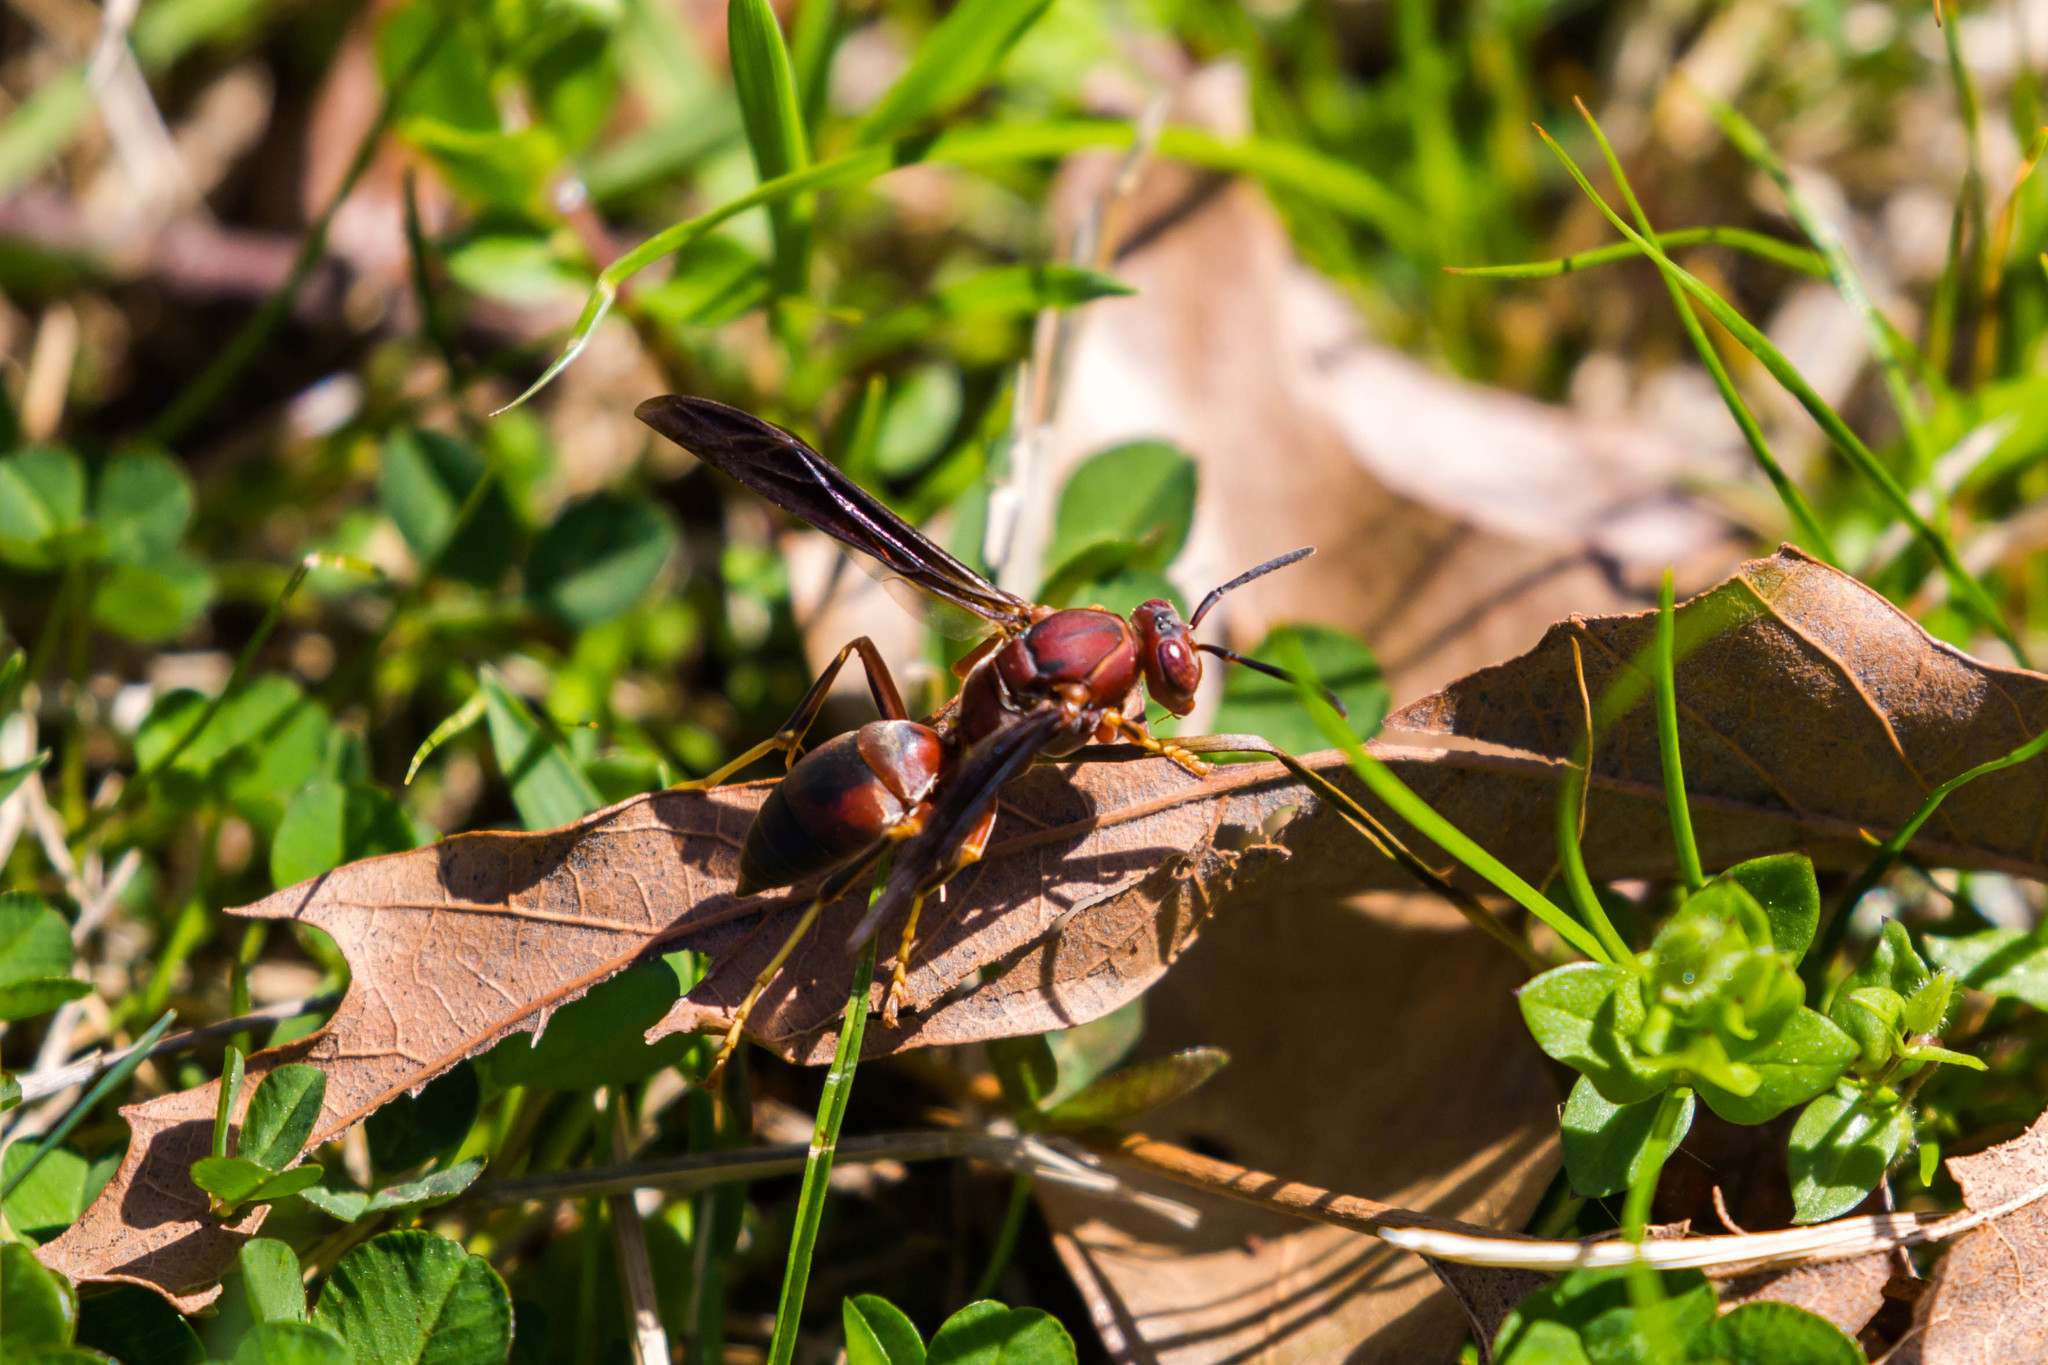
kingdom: Animalia
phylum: Arthropoda
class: Insecta
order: Hymenoptera
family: Eumenidae
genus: Polistes
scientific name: Polistes metricus
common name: Metric paper wasp
